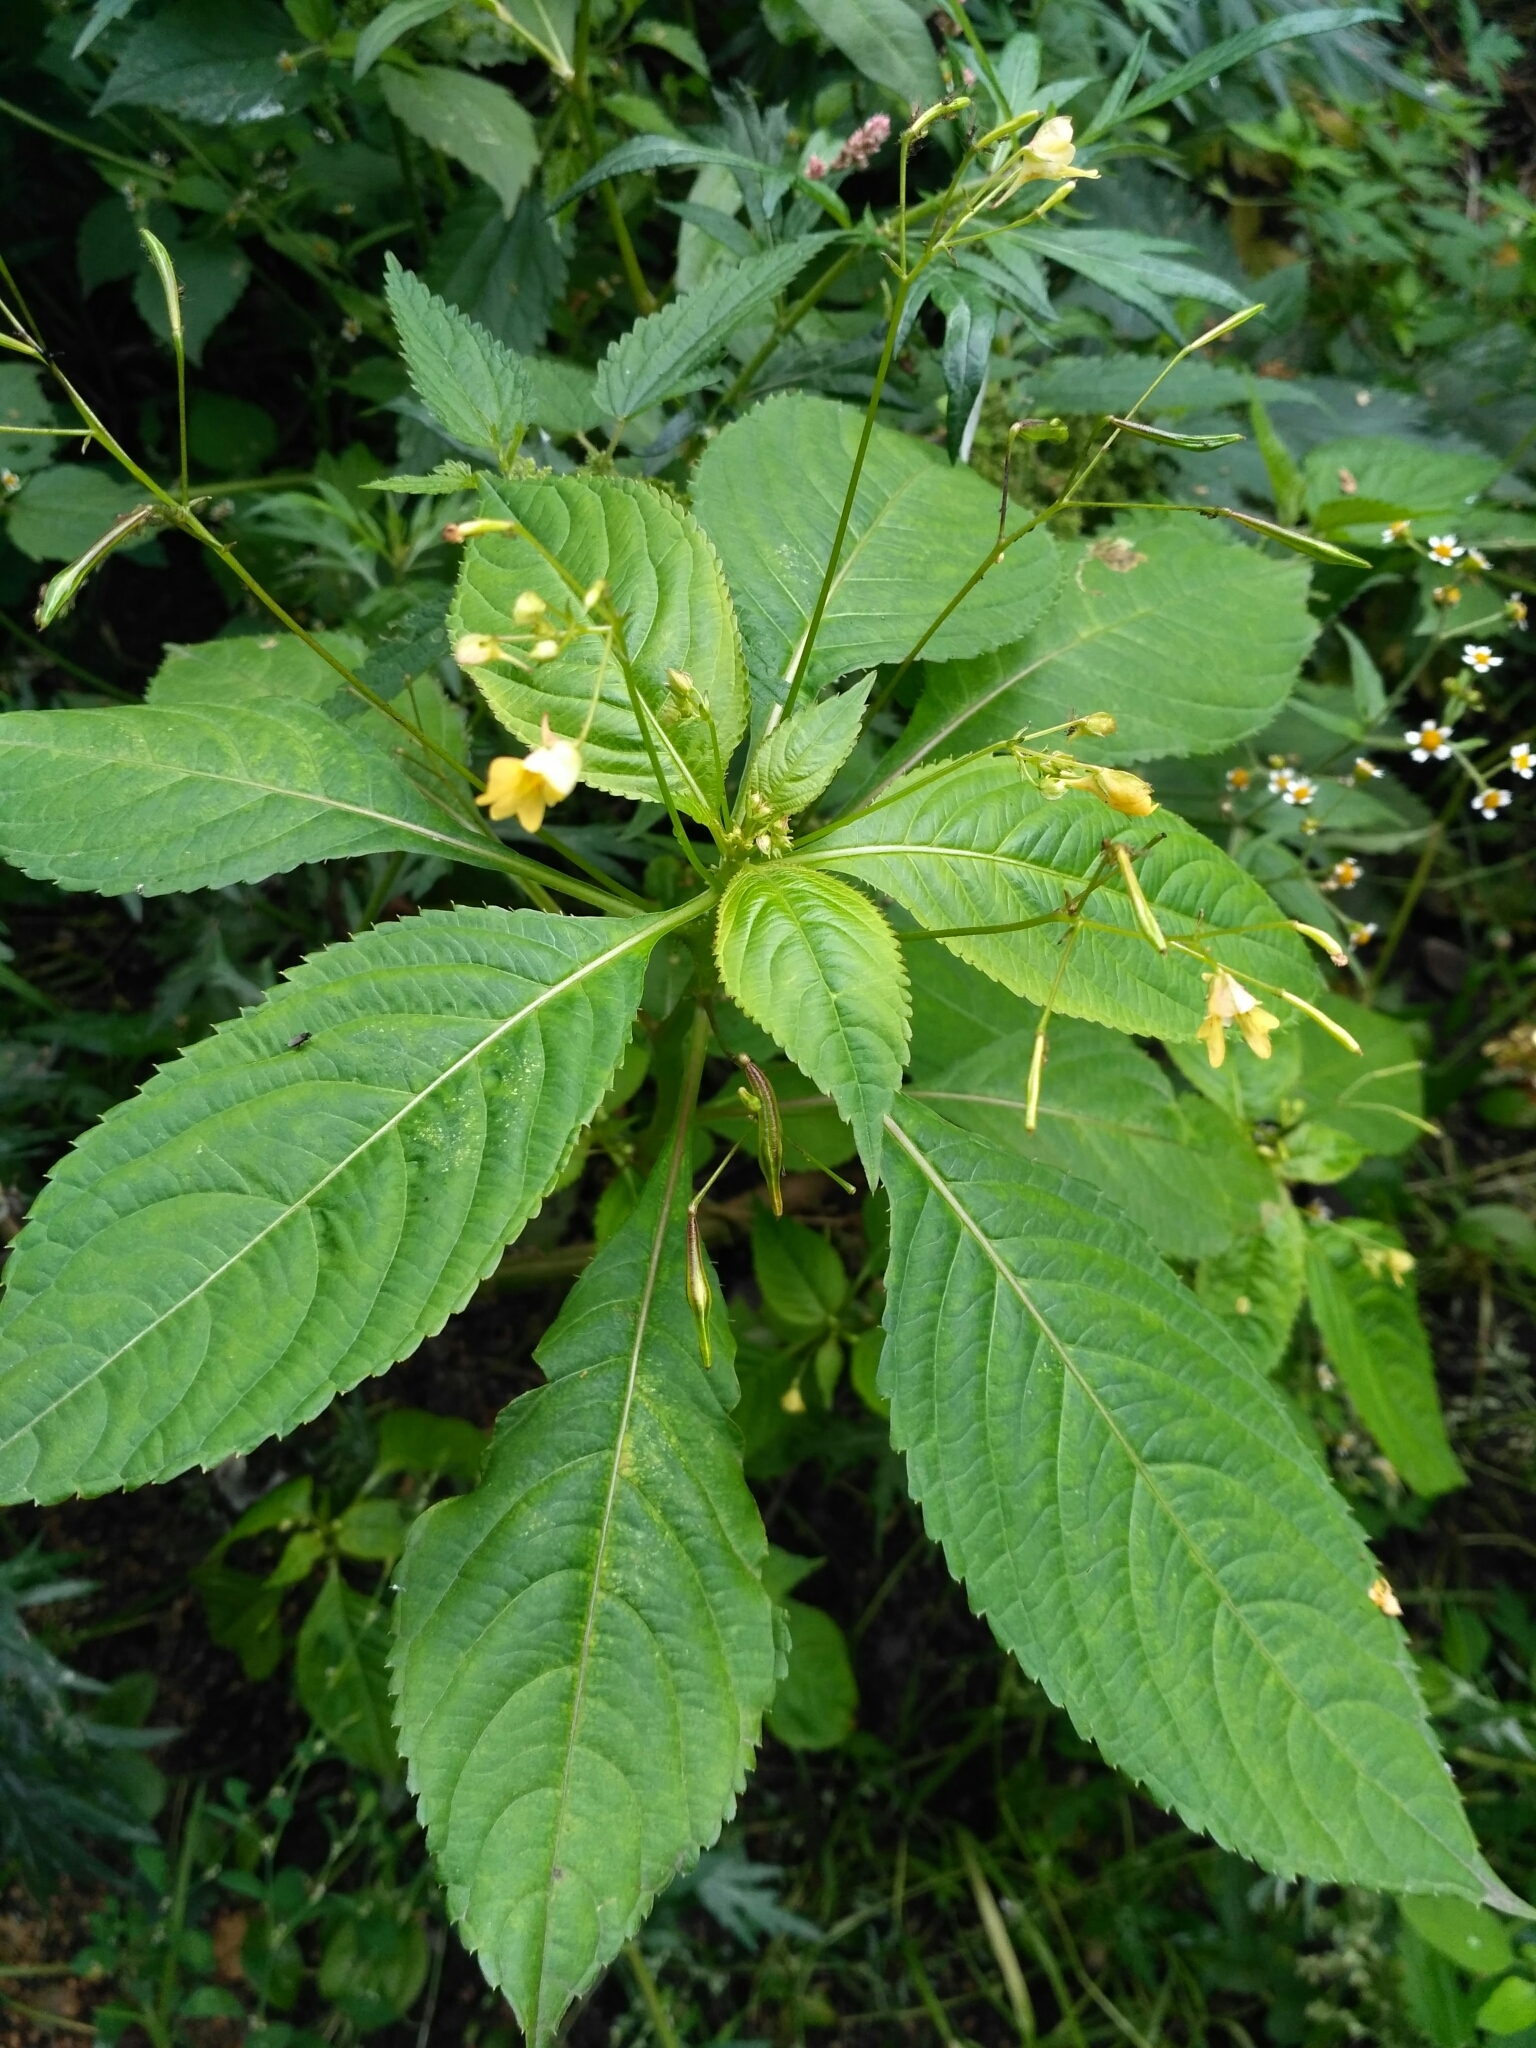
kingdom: Plantae
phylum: Tracheophyta
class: Magnoliopsida
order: Ericales
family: Balsaminaceae
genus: Impatiens
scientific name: Impatiens parviflora
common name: Small balsam
